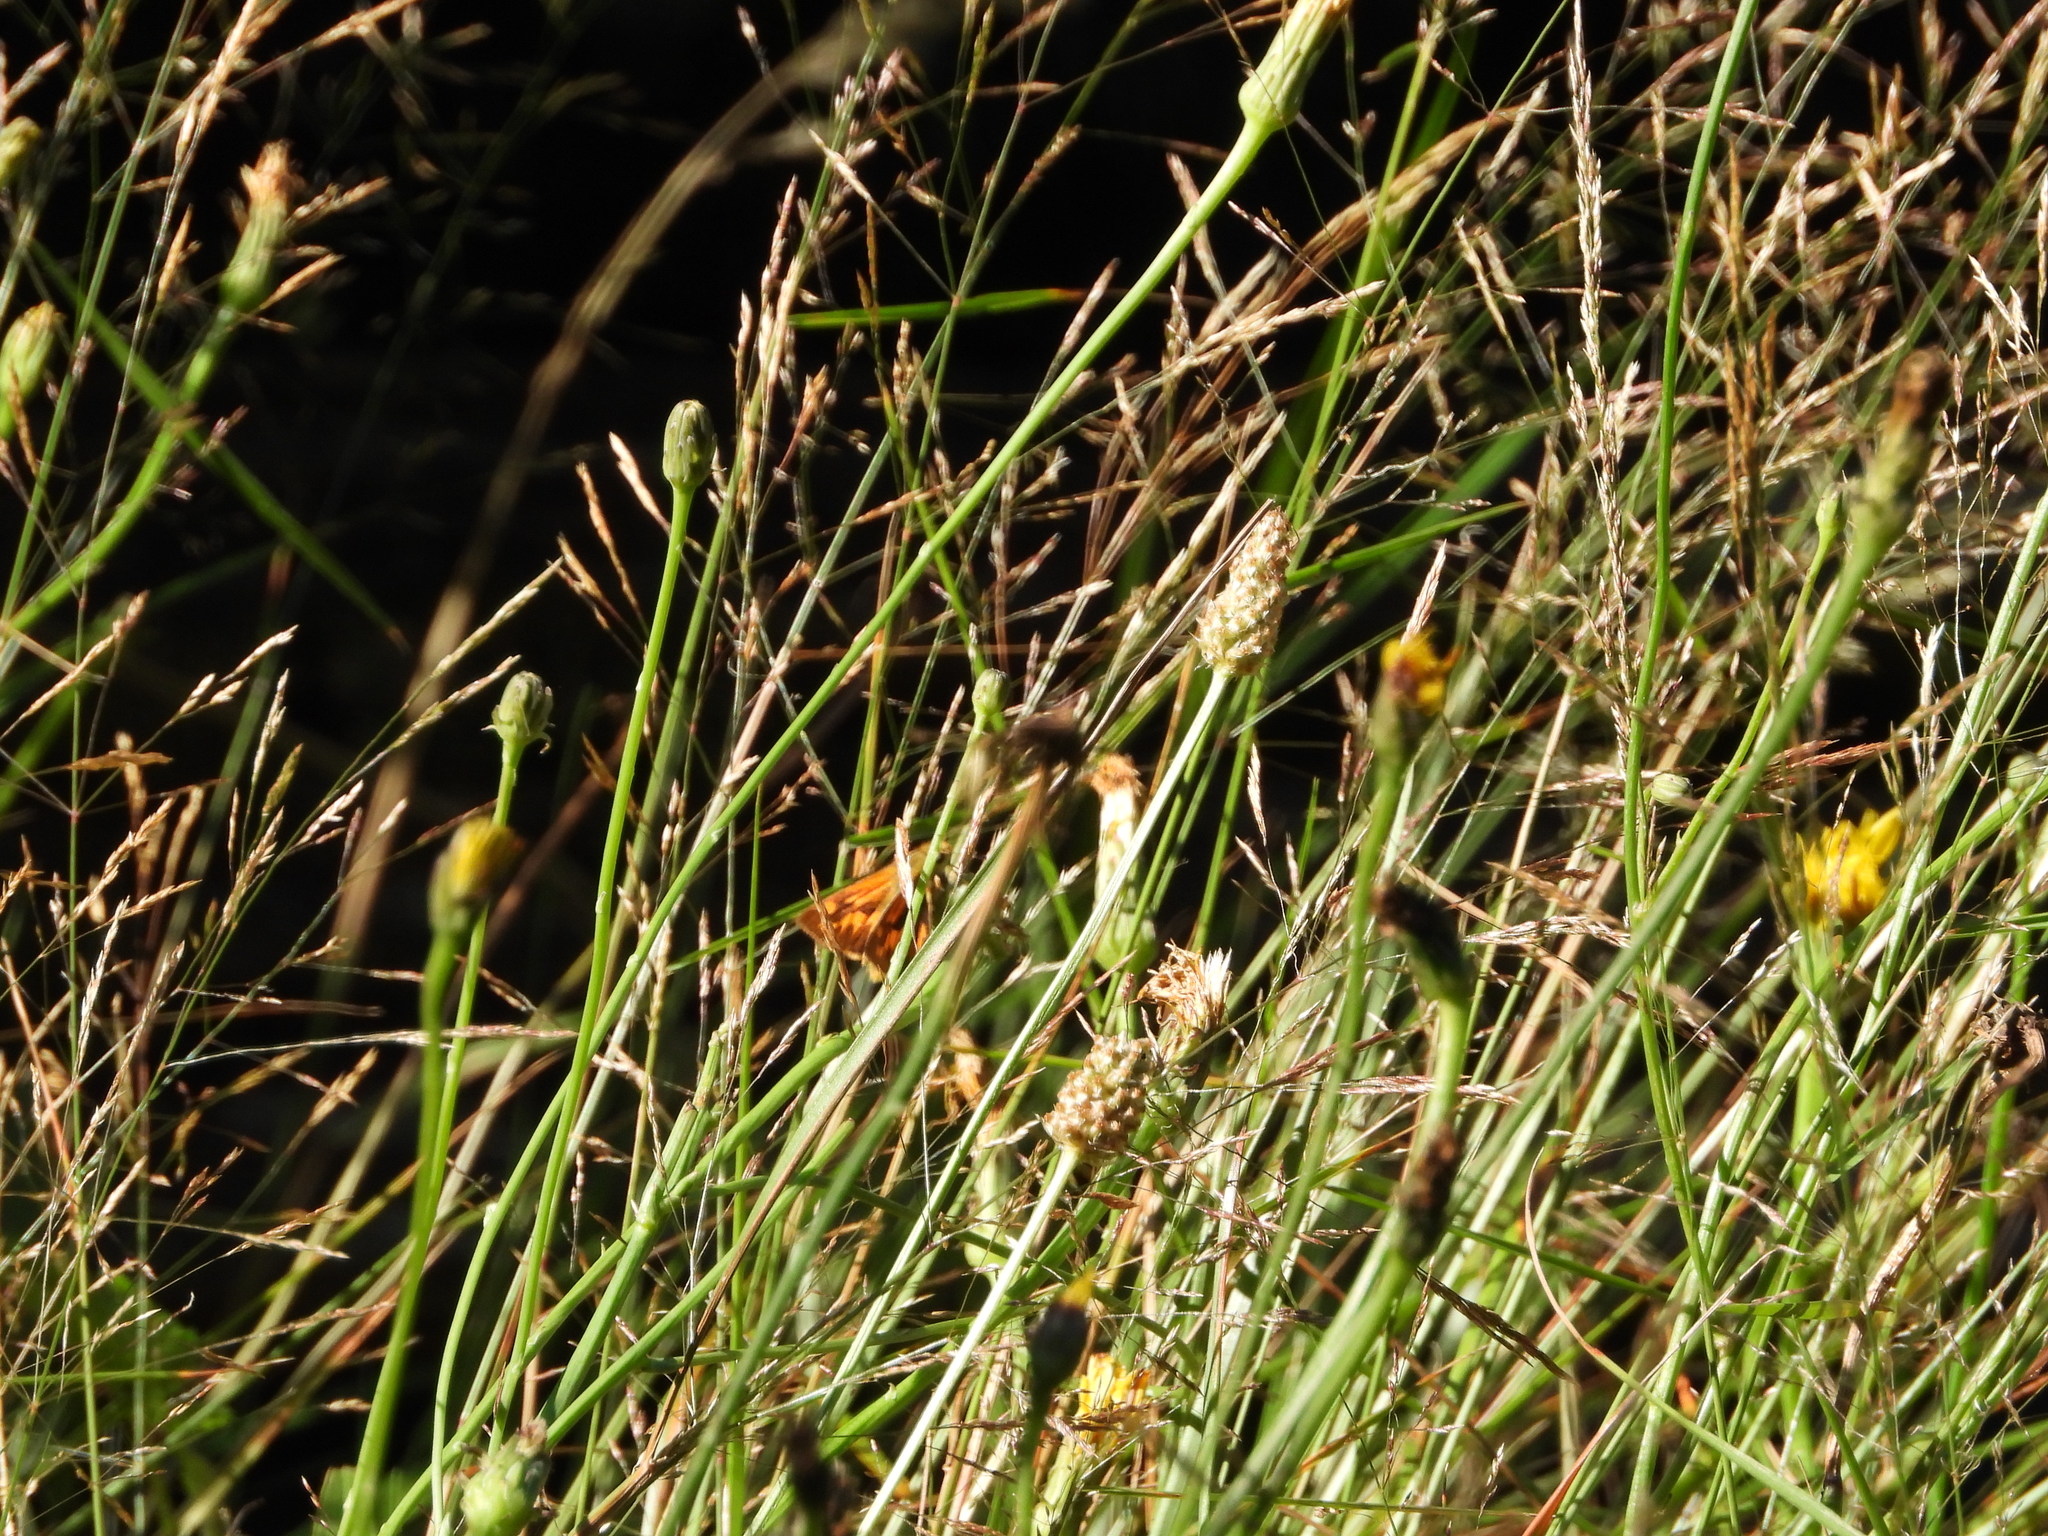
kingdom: Animalia
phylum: Arthropoda
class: Insecta
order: Lepidoptera
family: Hesperiidae
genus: Ochlodes
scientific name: Ochlodes sylvanoides
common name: Woodland skipper
